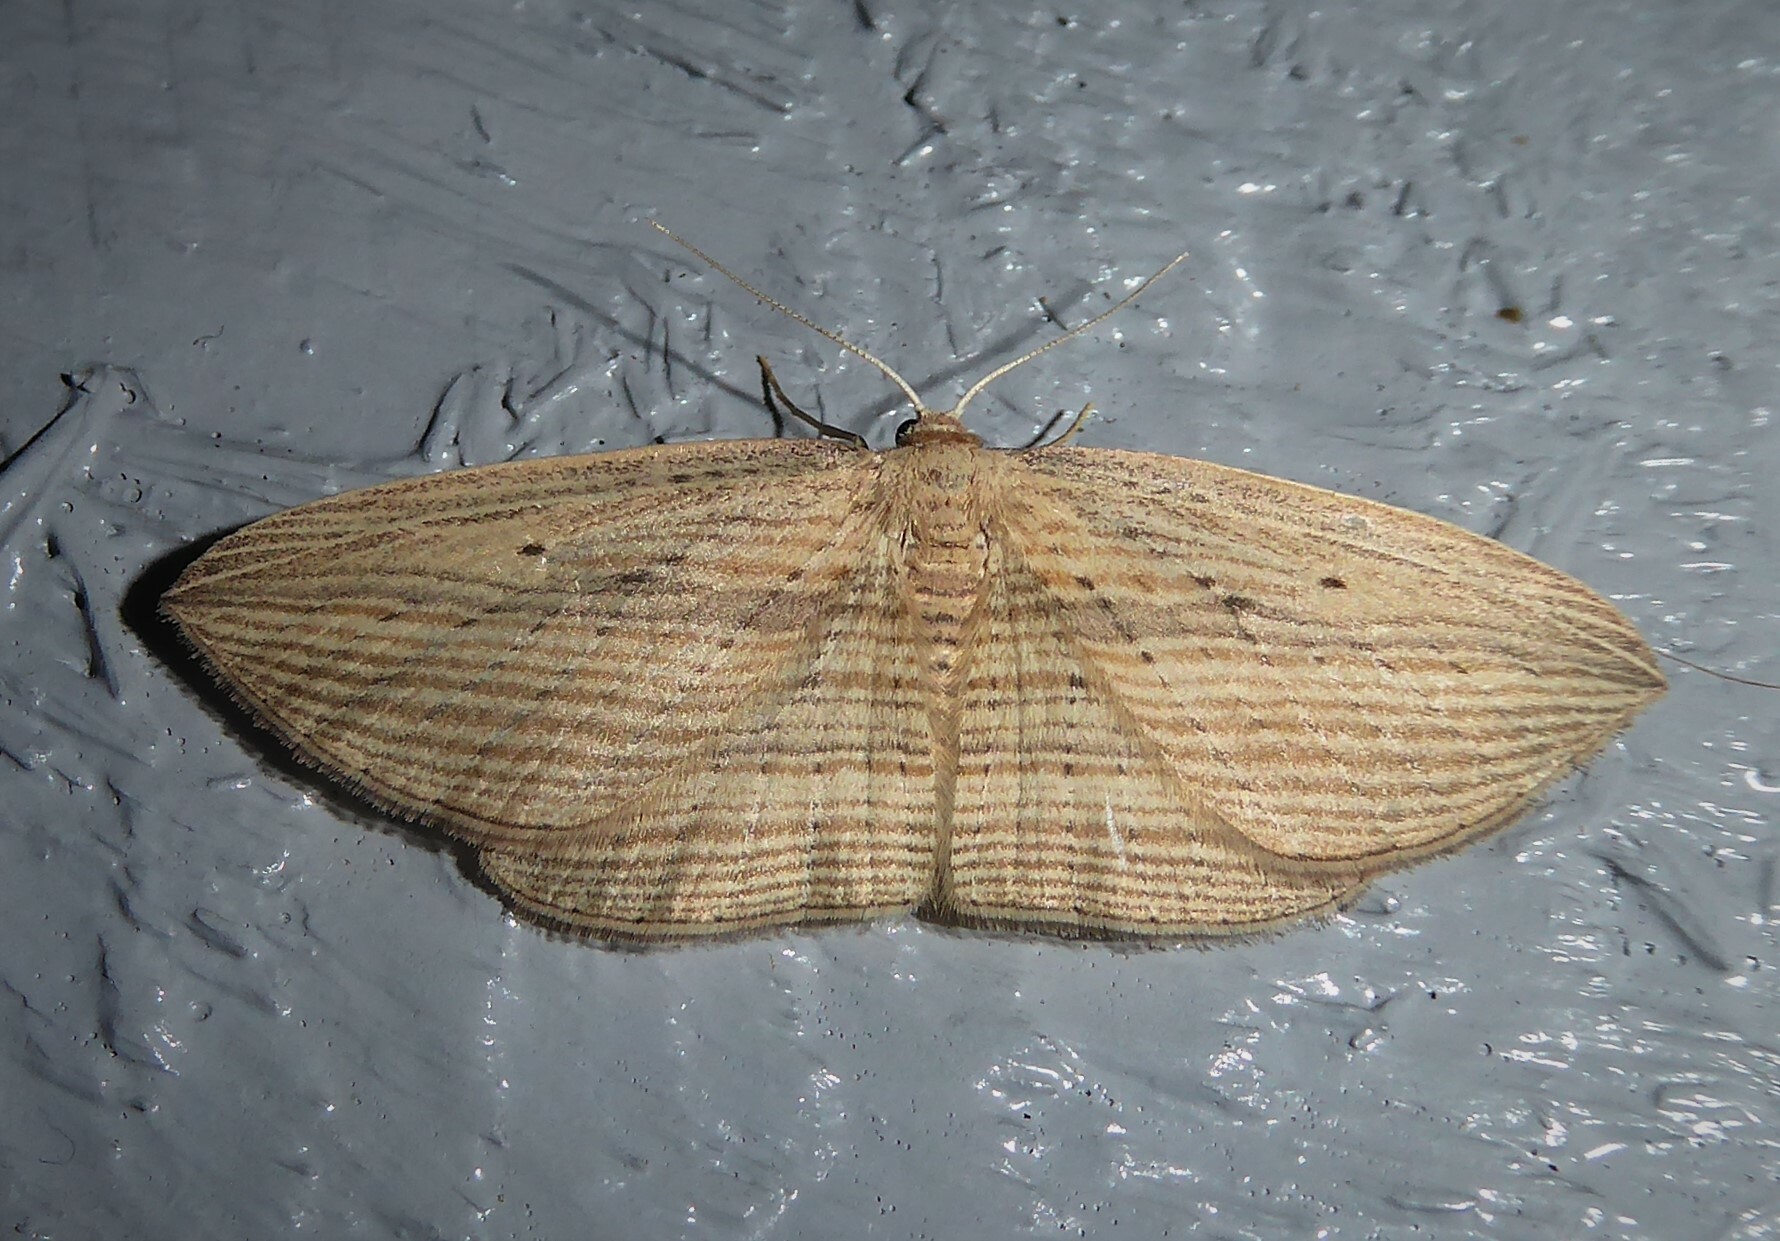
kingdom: Animalia
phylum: Arthropoda
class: Insecta
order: Lepidoptera
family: Geometridae
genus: Epiphryne
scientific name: Epiphryne verriculata
